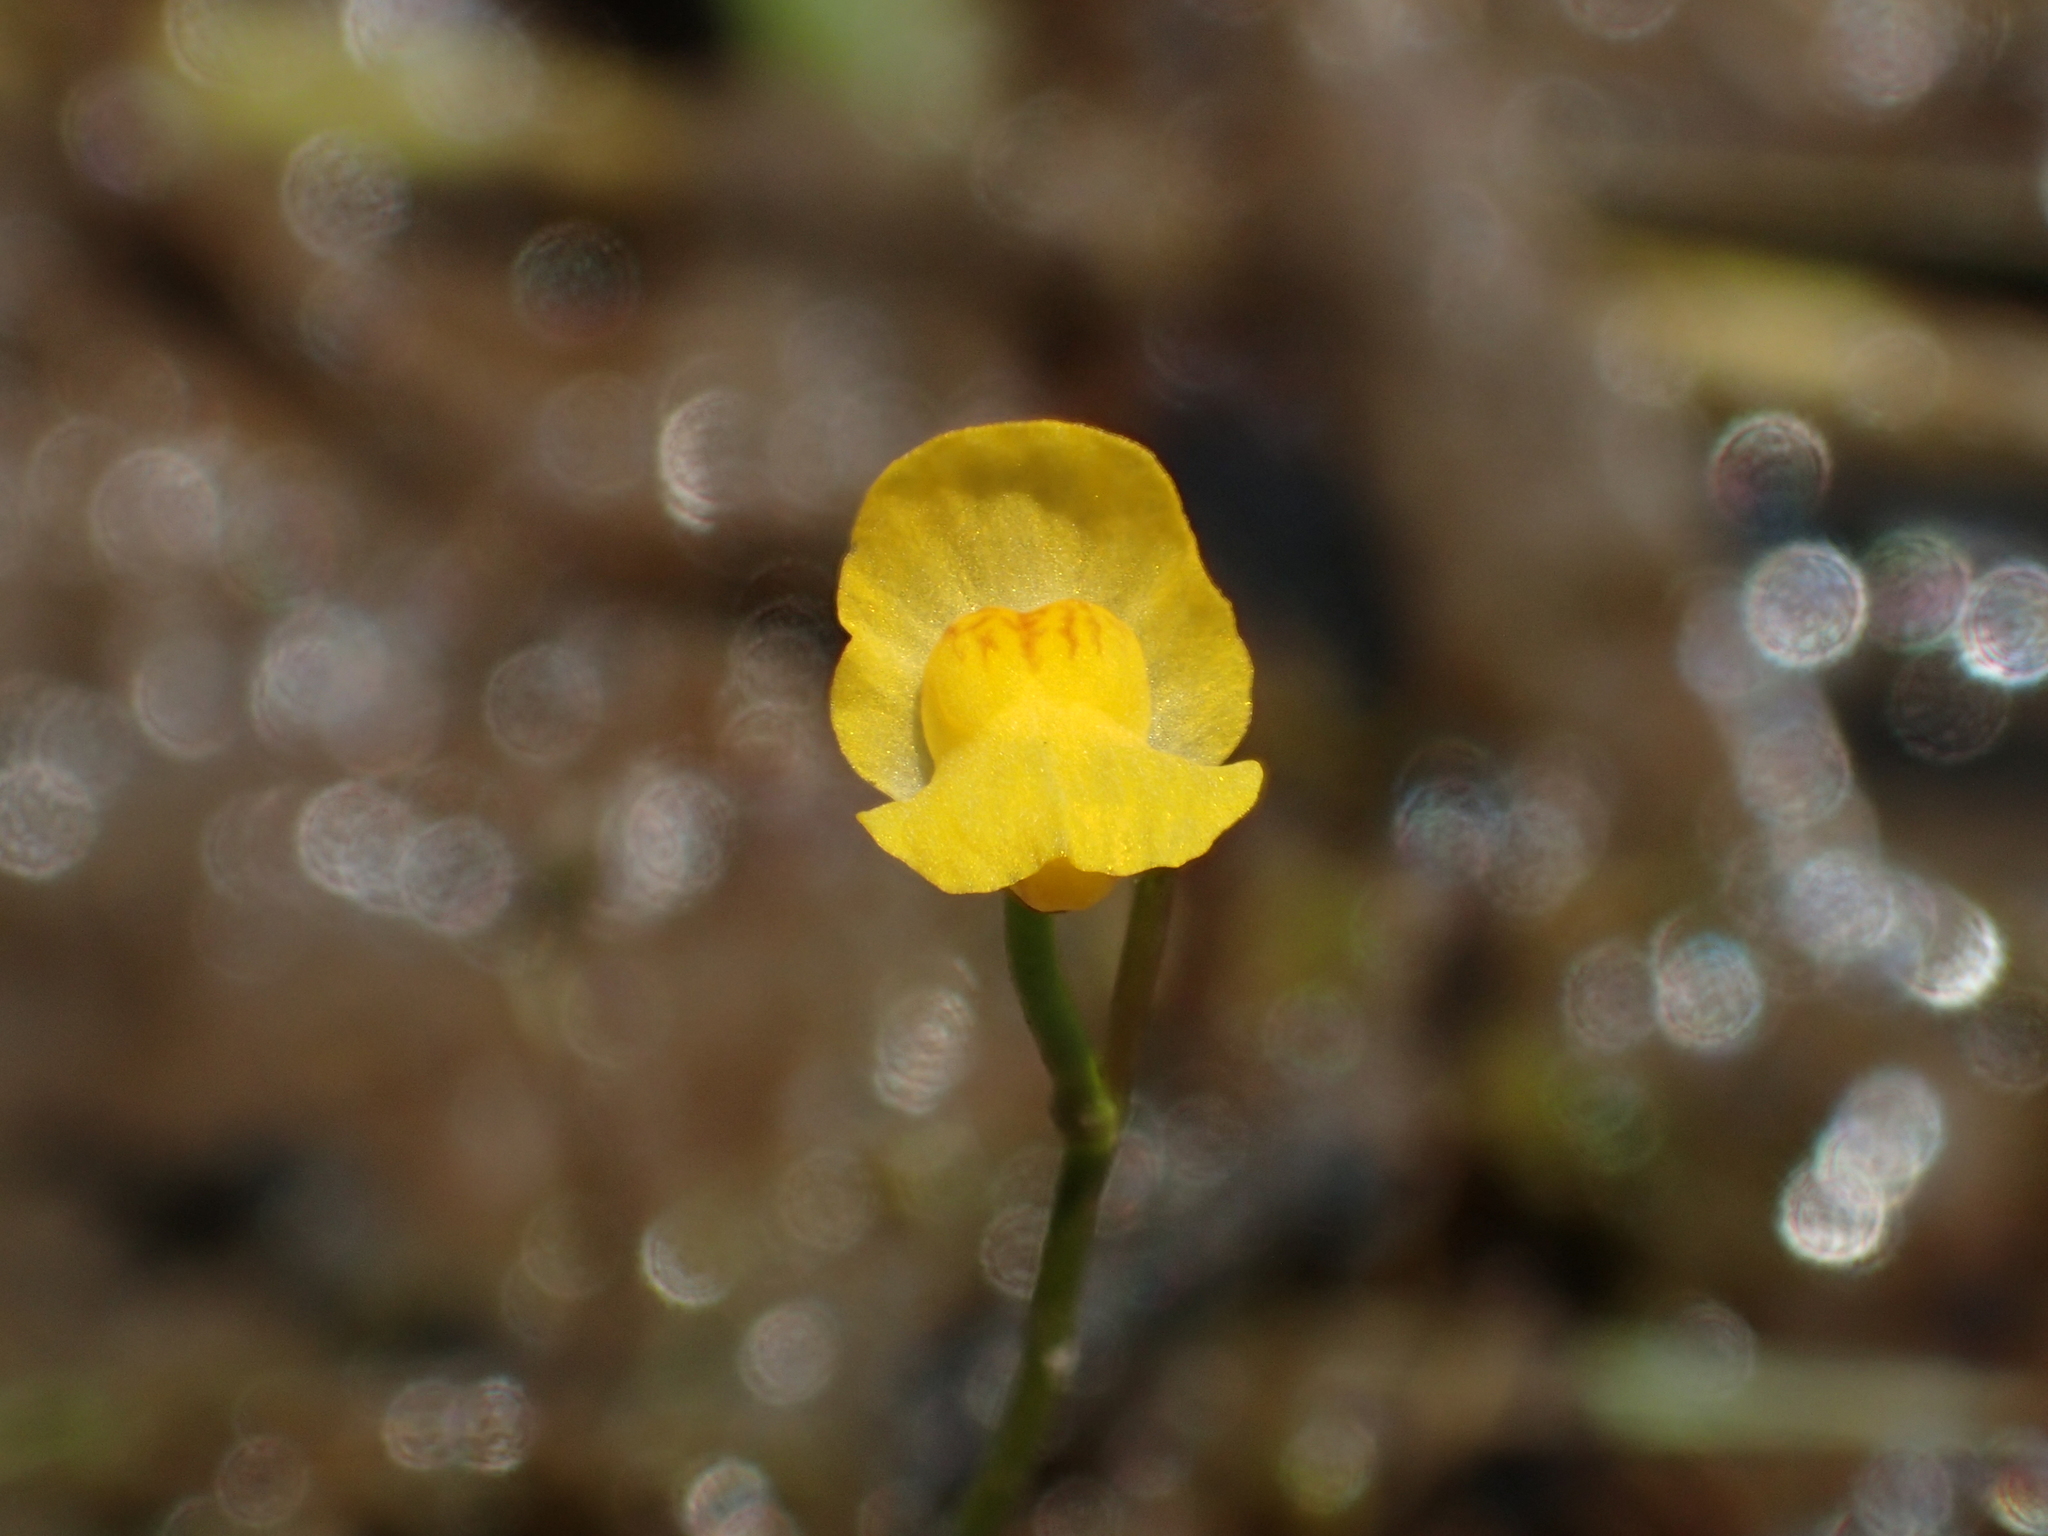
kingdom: Plantae
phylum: Tracheophyta
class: Magnoliopsida
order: Lamiales
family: Lentibulariaceae
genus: Utricularia
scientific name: Utricularia gibba
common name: Humped bladderwort
